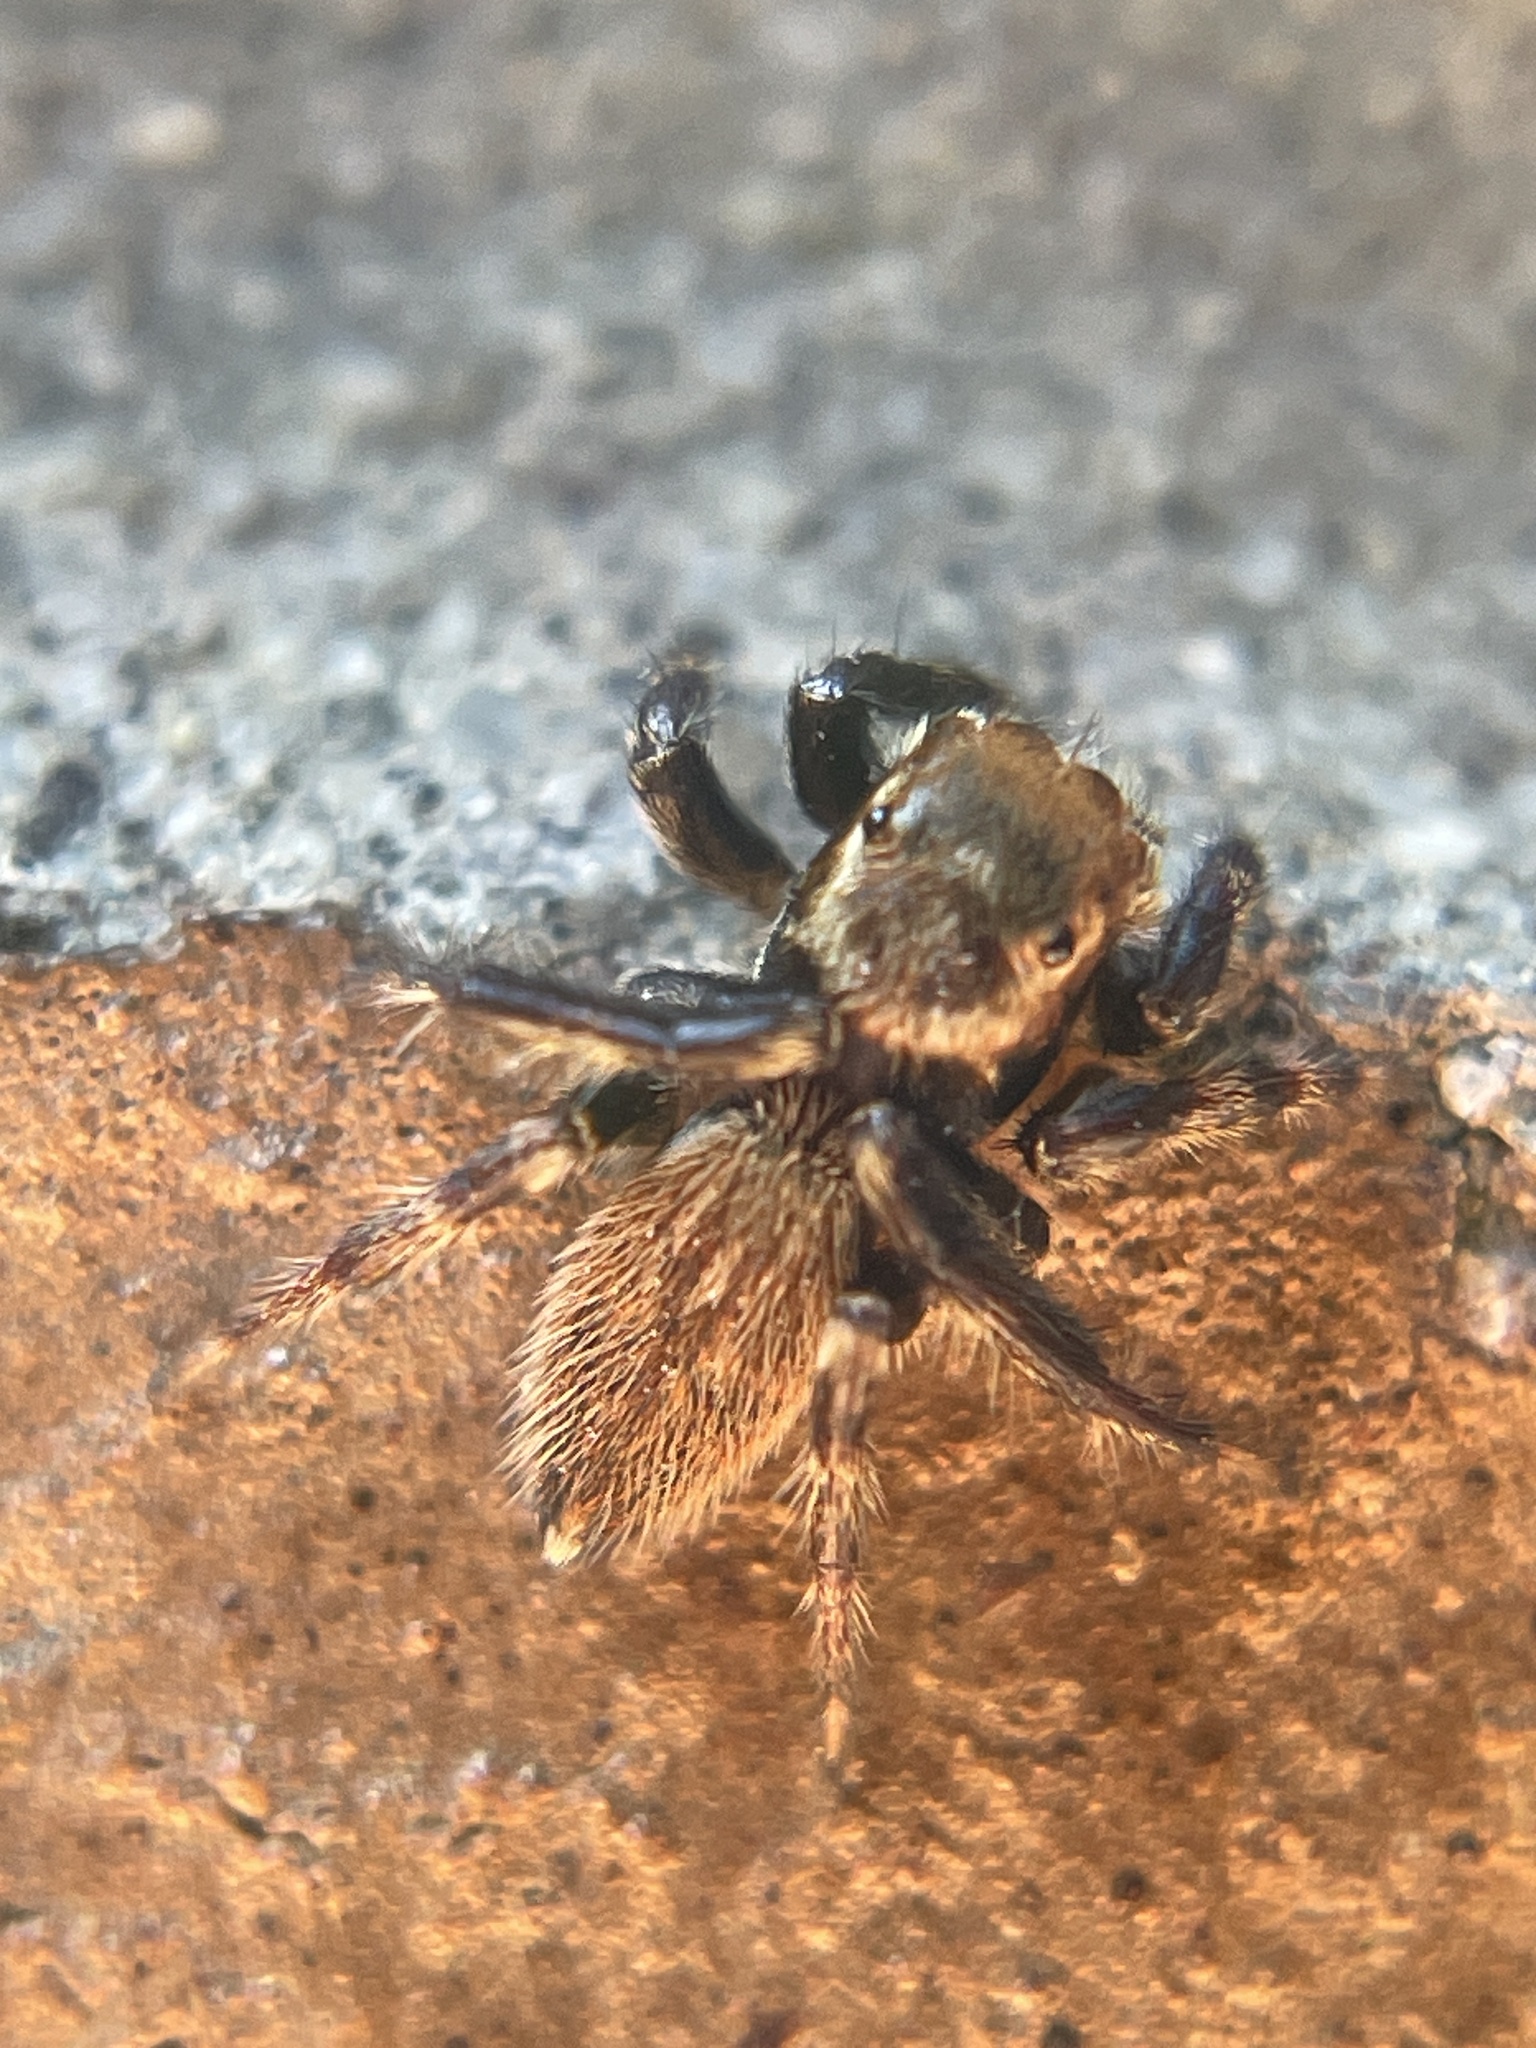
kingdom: Animalia
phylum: Arthropoda
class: Arachnida
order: Araneae
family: Salticidae
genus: Maratus
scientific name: Maratus griseus
